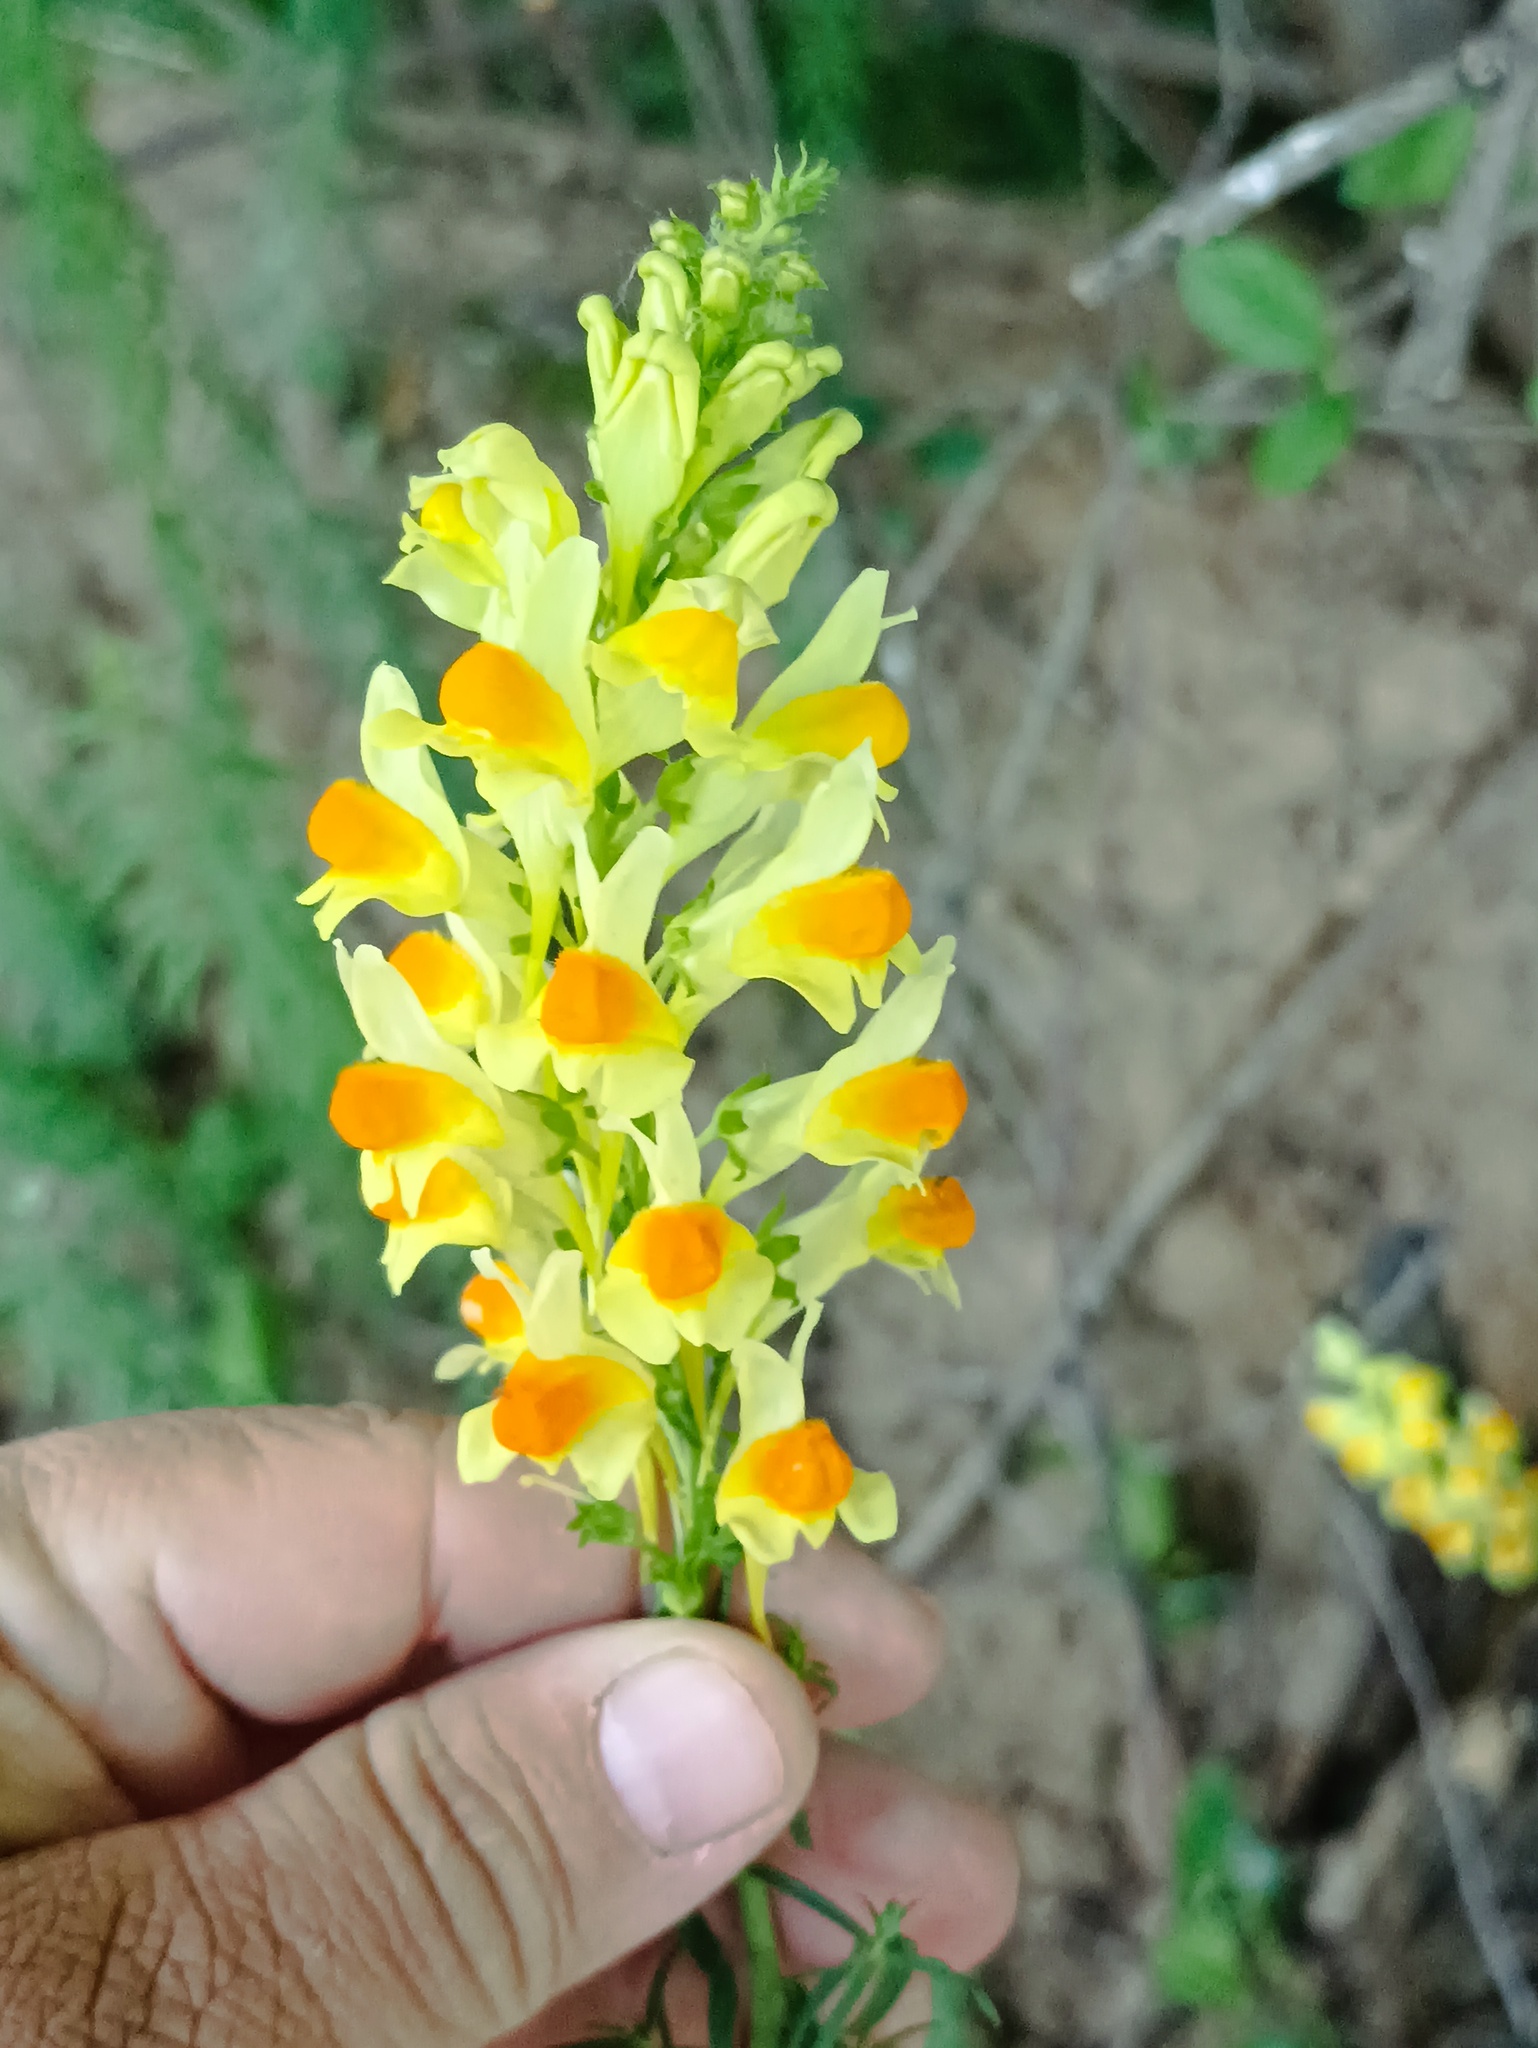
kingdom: Plantae
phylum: Tracheophyta
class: Magnoliopsida
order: Lamiales
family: Plantaginaceae
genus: Linaria
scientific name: Linaria vulgaris
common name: Butter and eggs
